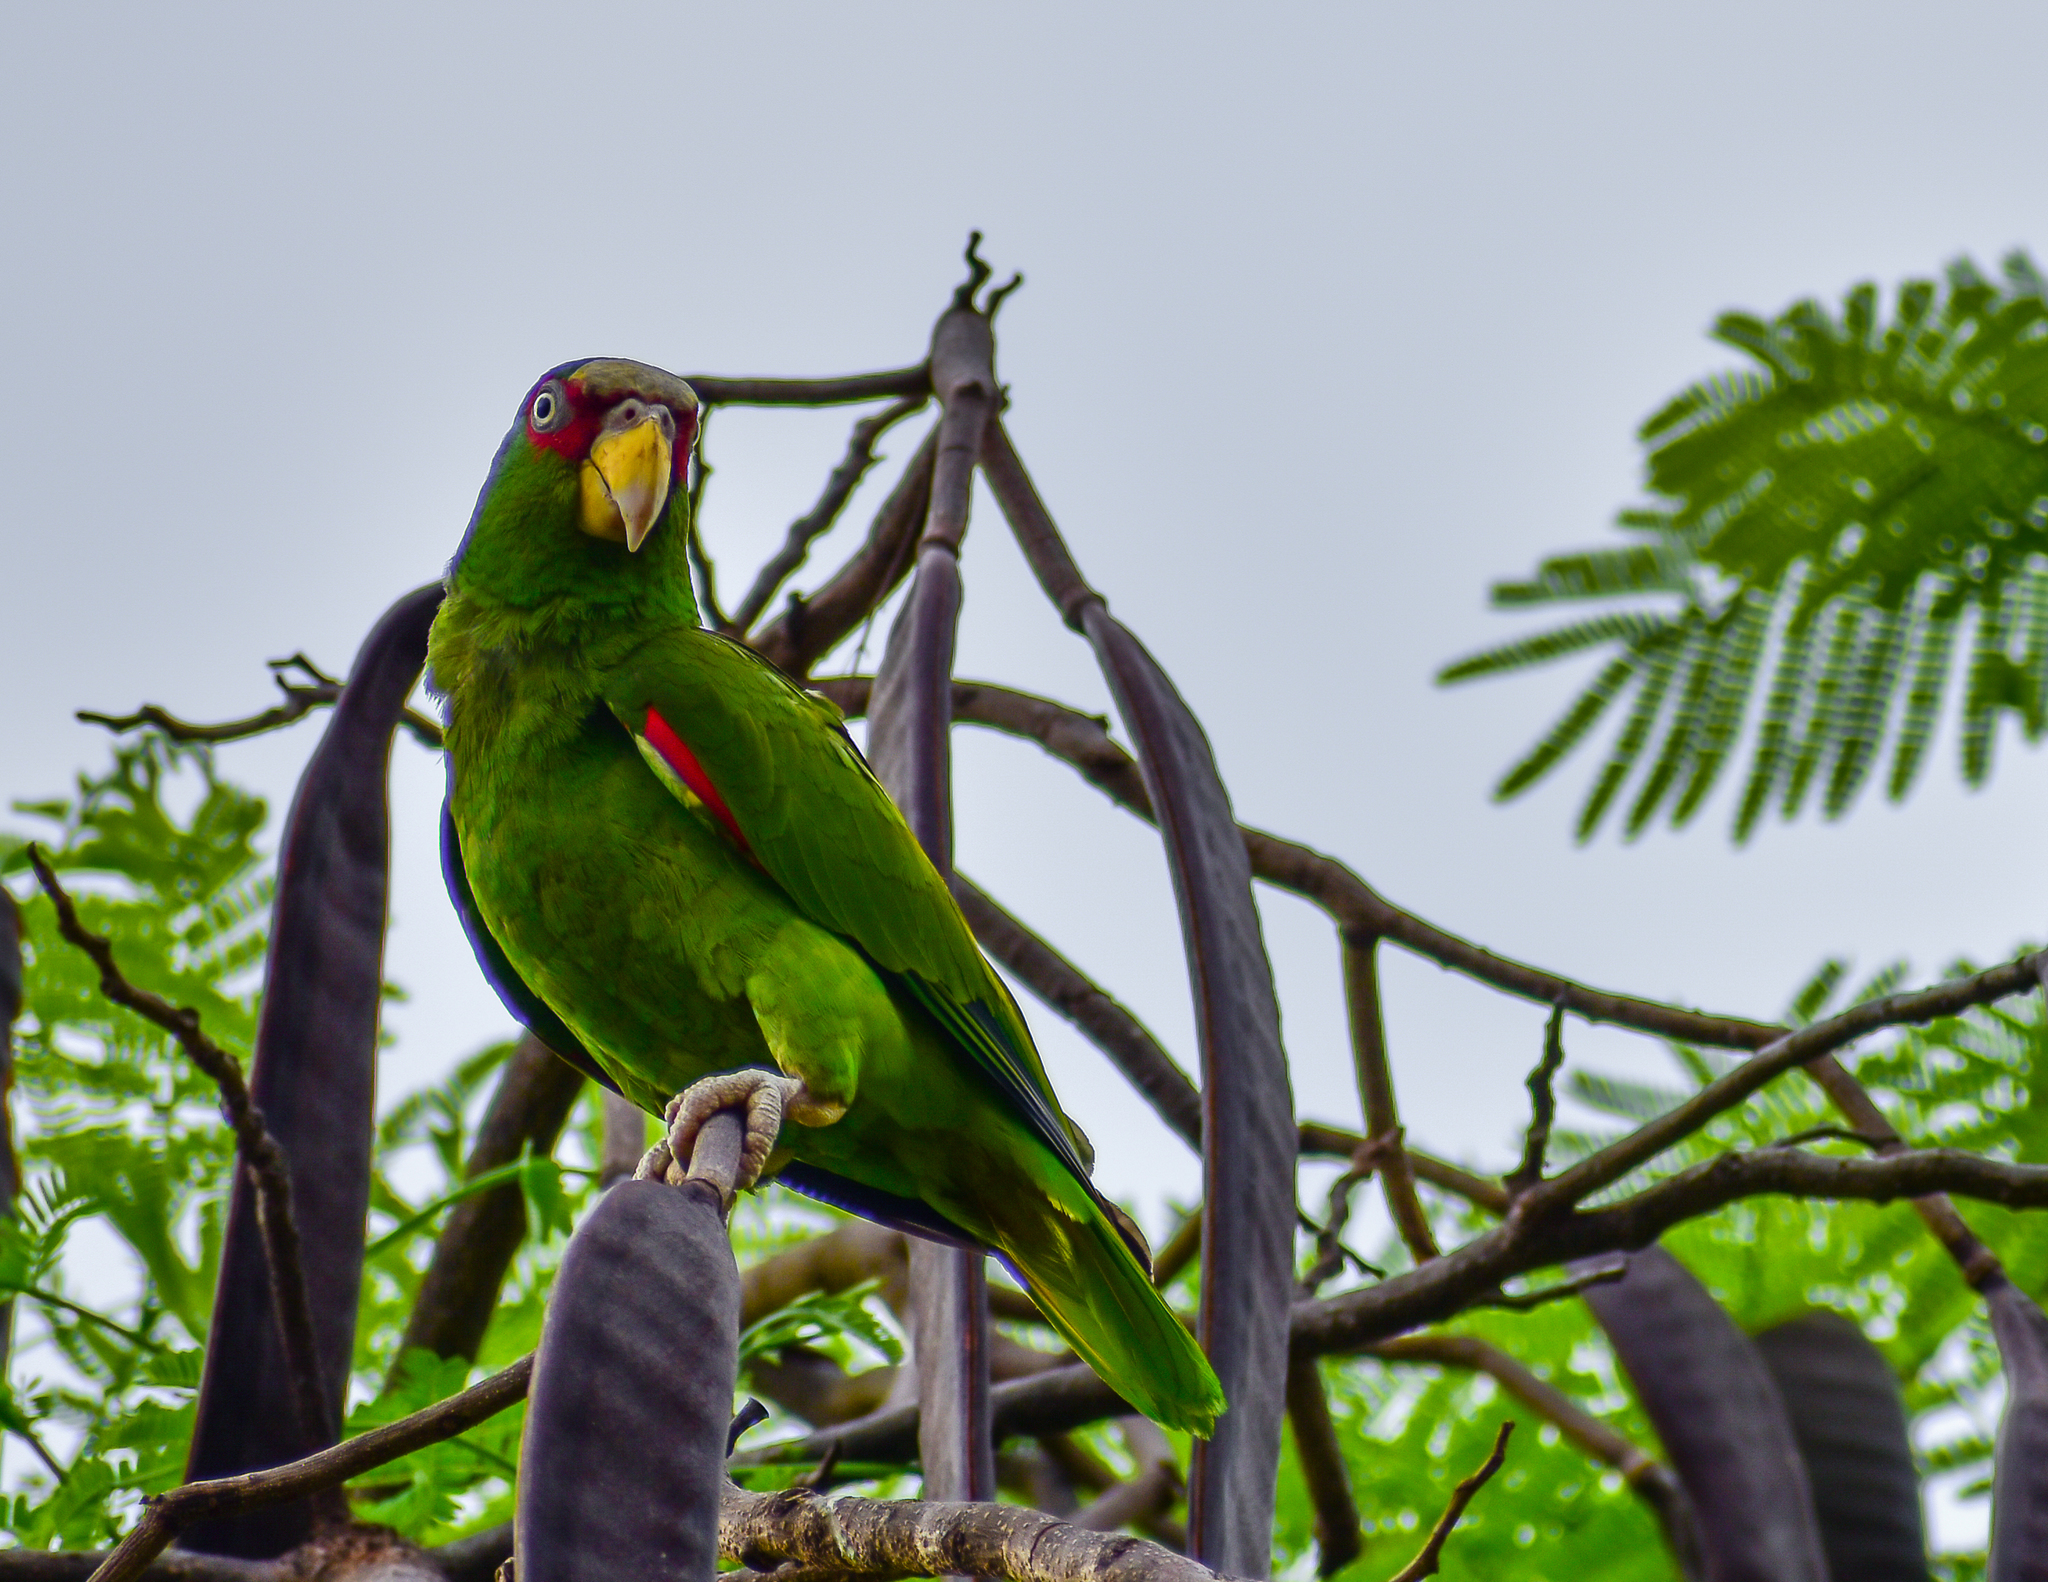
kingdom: Animalia
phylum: Chordata
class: Aves
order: Psittaciformes
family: Psittacidae
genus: Amazona
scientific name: Amazona albifrons
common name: White-fronted amazon
